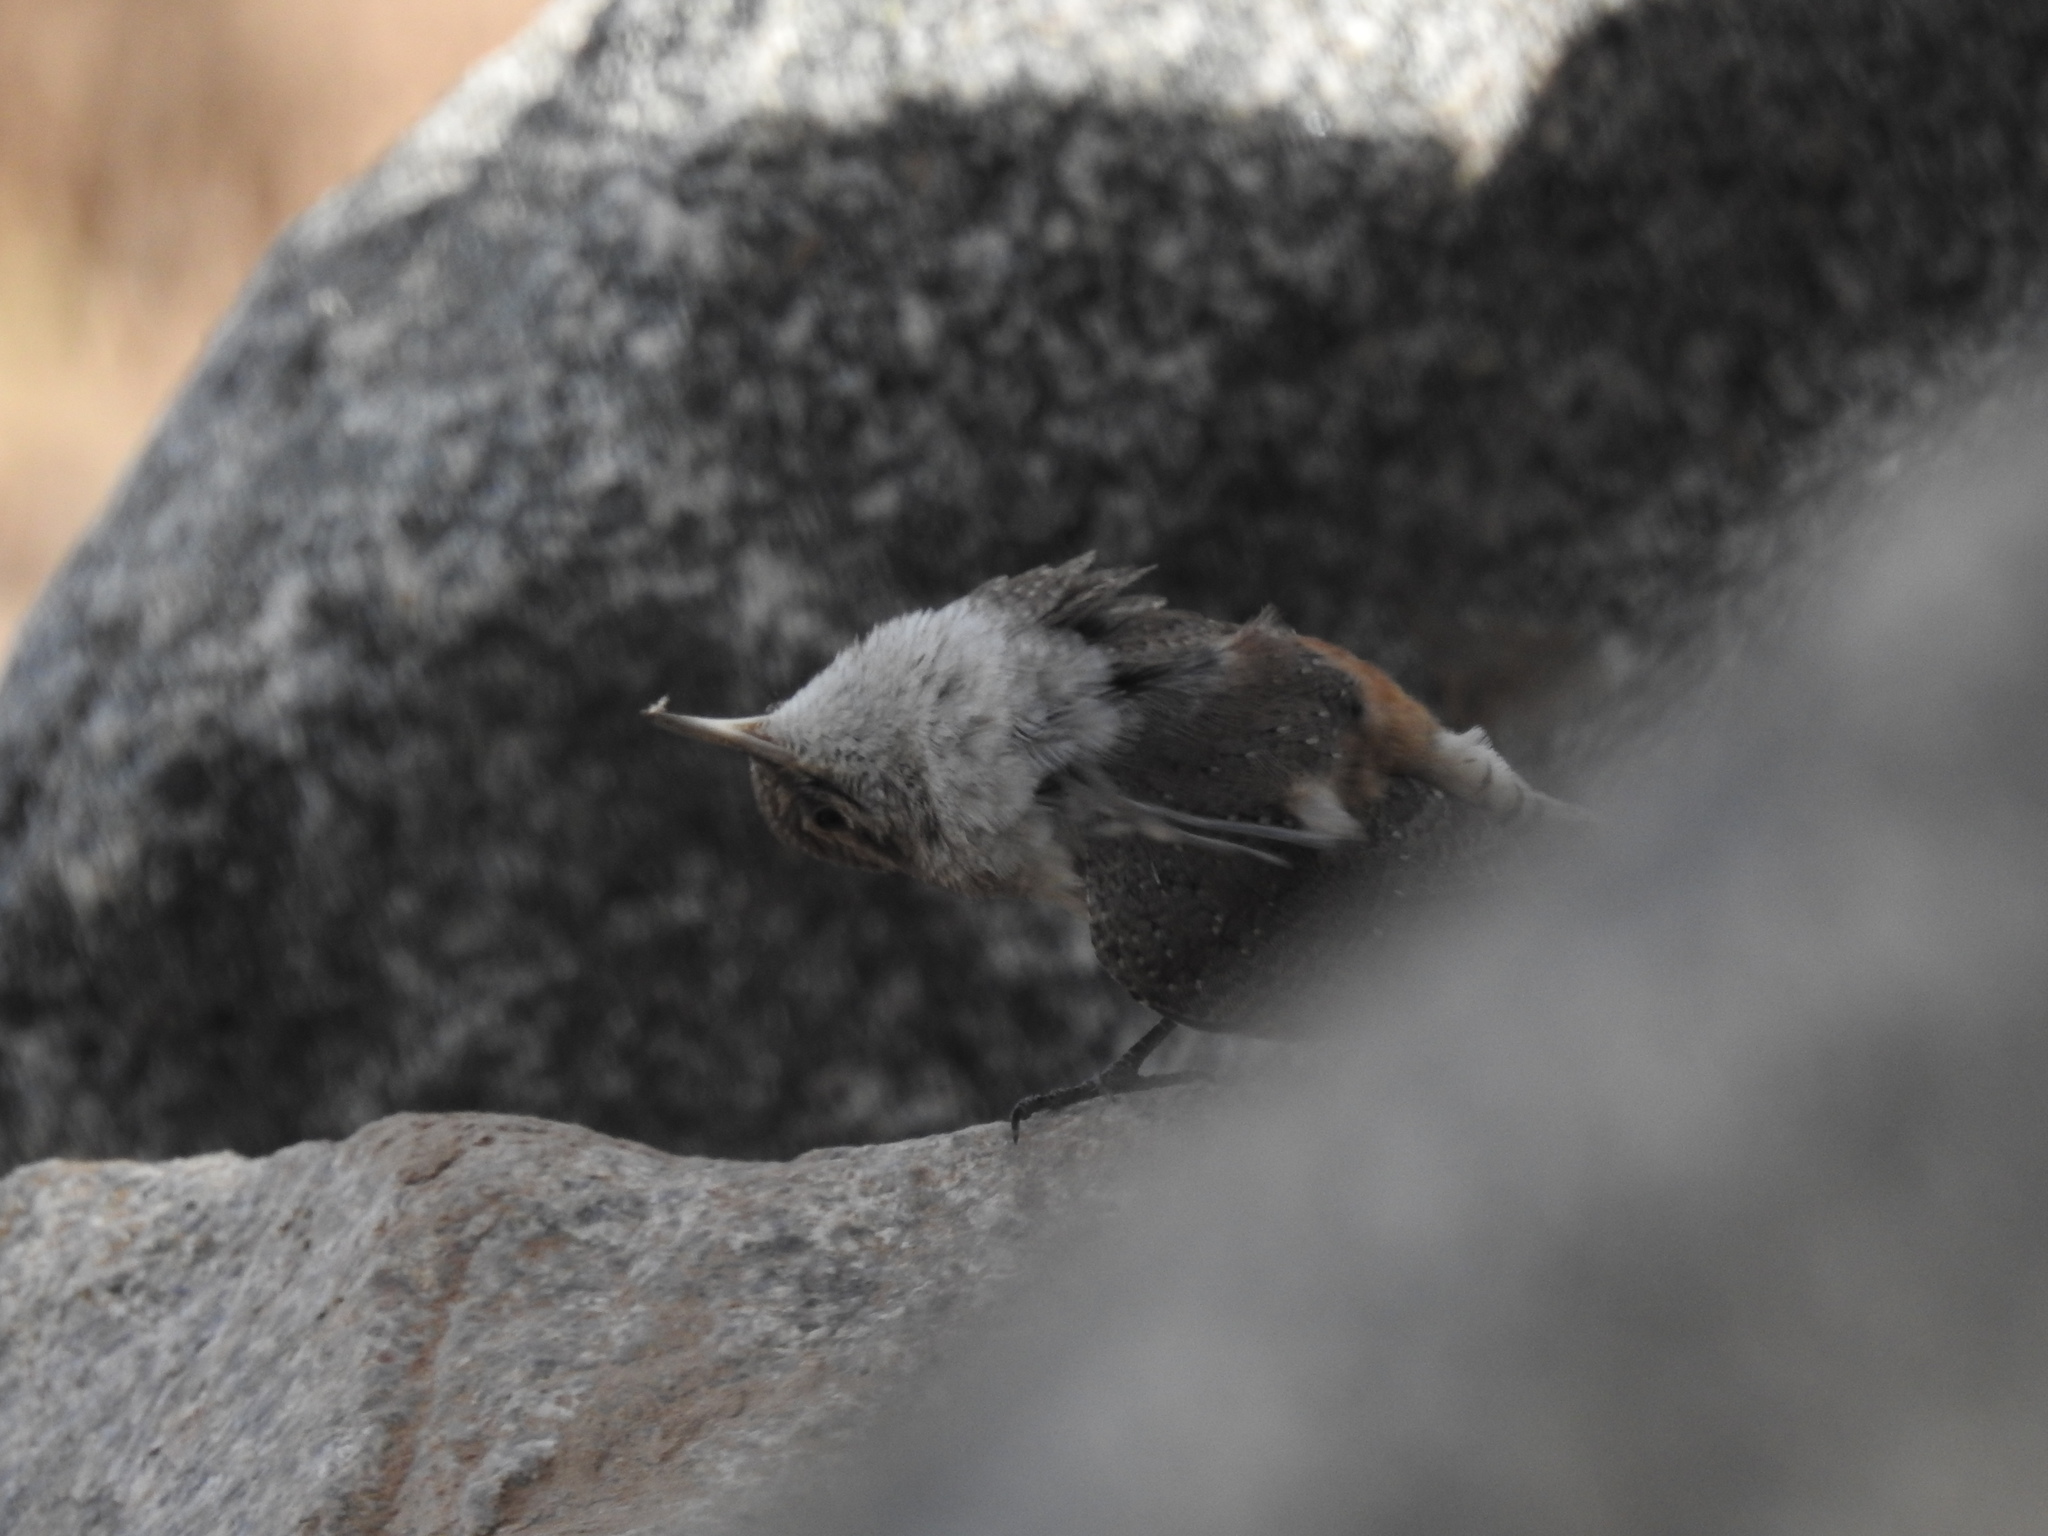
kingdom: Animalia
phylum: Chordata
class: Aves
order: Passeriformes
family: Troglodytidae
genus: Salpinctes
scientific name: Salpinctes obsoletus
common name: Rock wren
